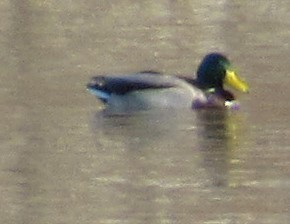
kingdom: Animalia
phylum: Chordata
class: Aves
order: Anseriformes
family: Anatidae
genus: Anas
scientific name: Anas platyrhynchos
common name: Mallard
